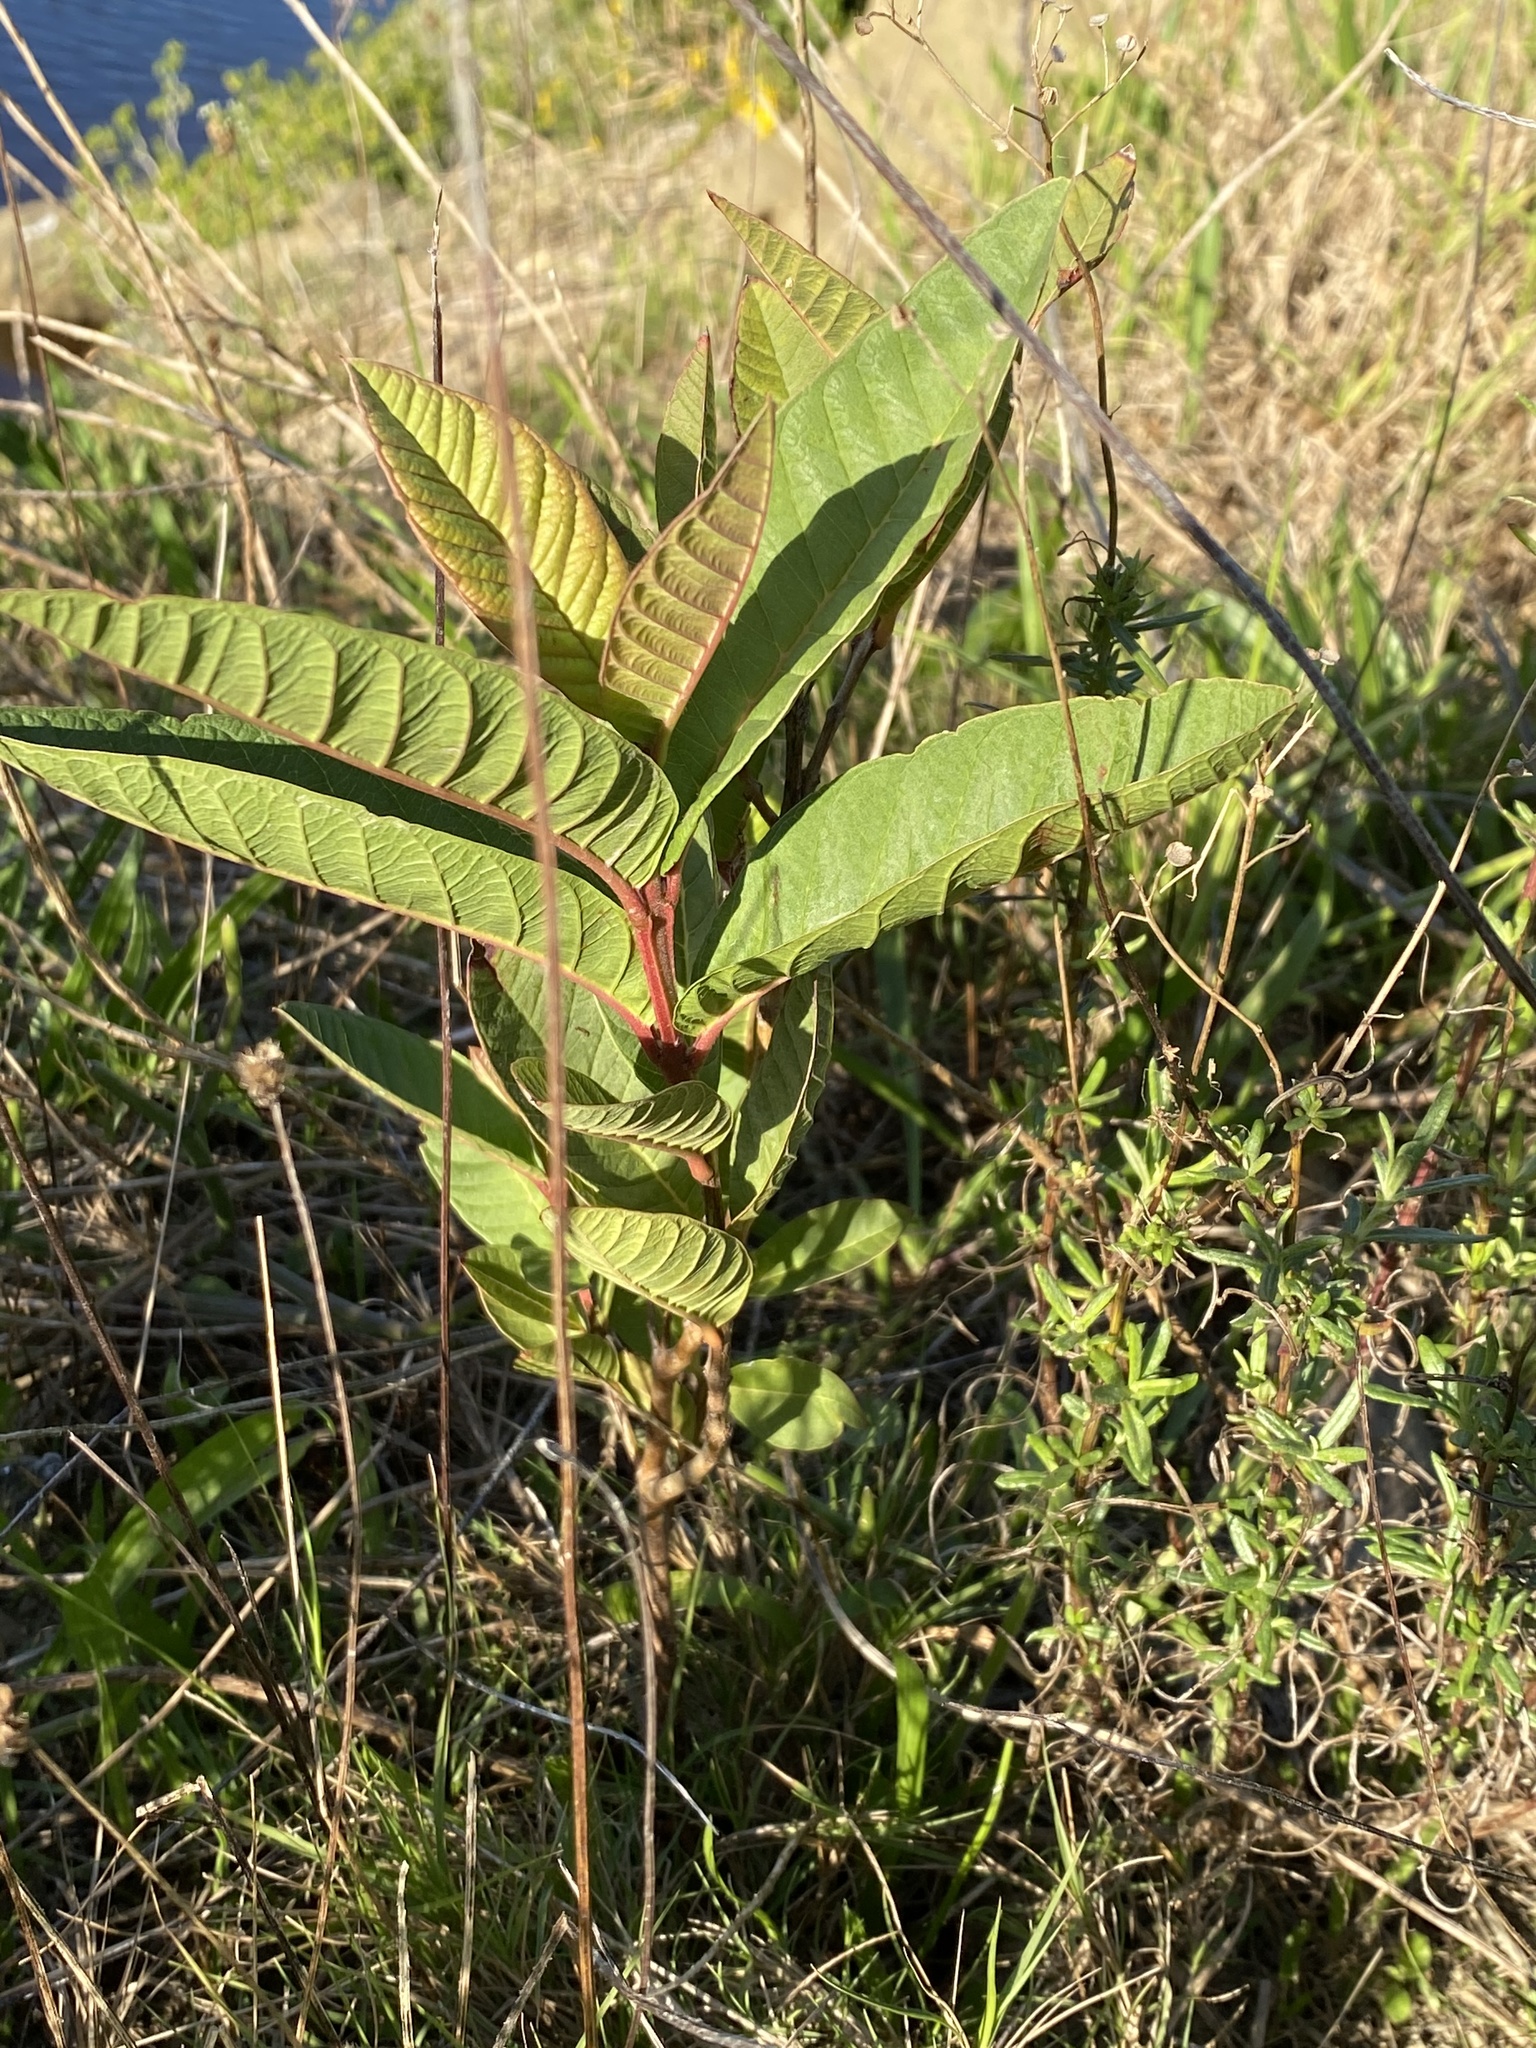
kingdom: Plantae
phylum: Tracheophyta
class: Magnoliopsida
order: Myrtales
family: Myrtaceae
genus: Psidium
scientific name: Psidium guajava
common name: Guava
